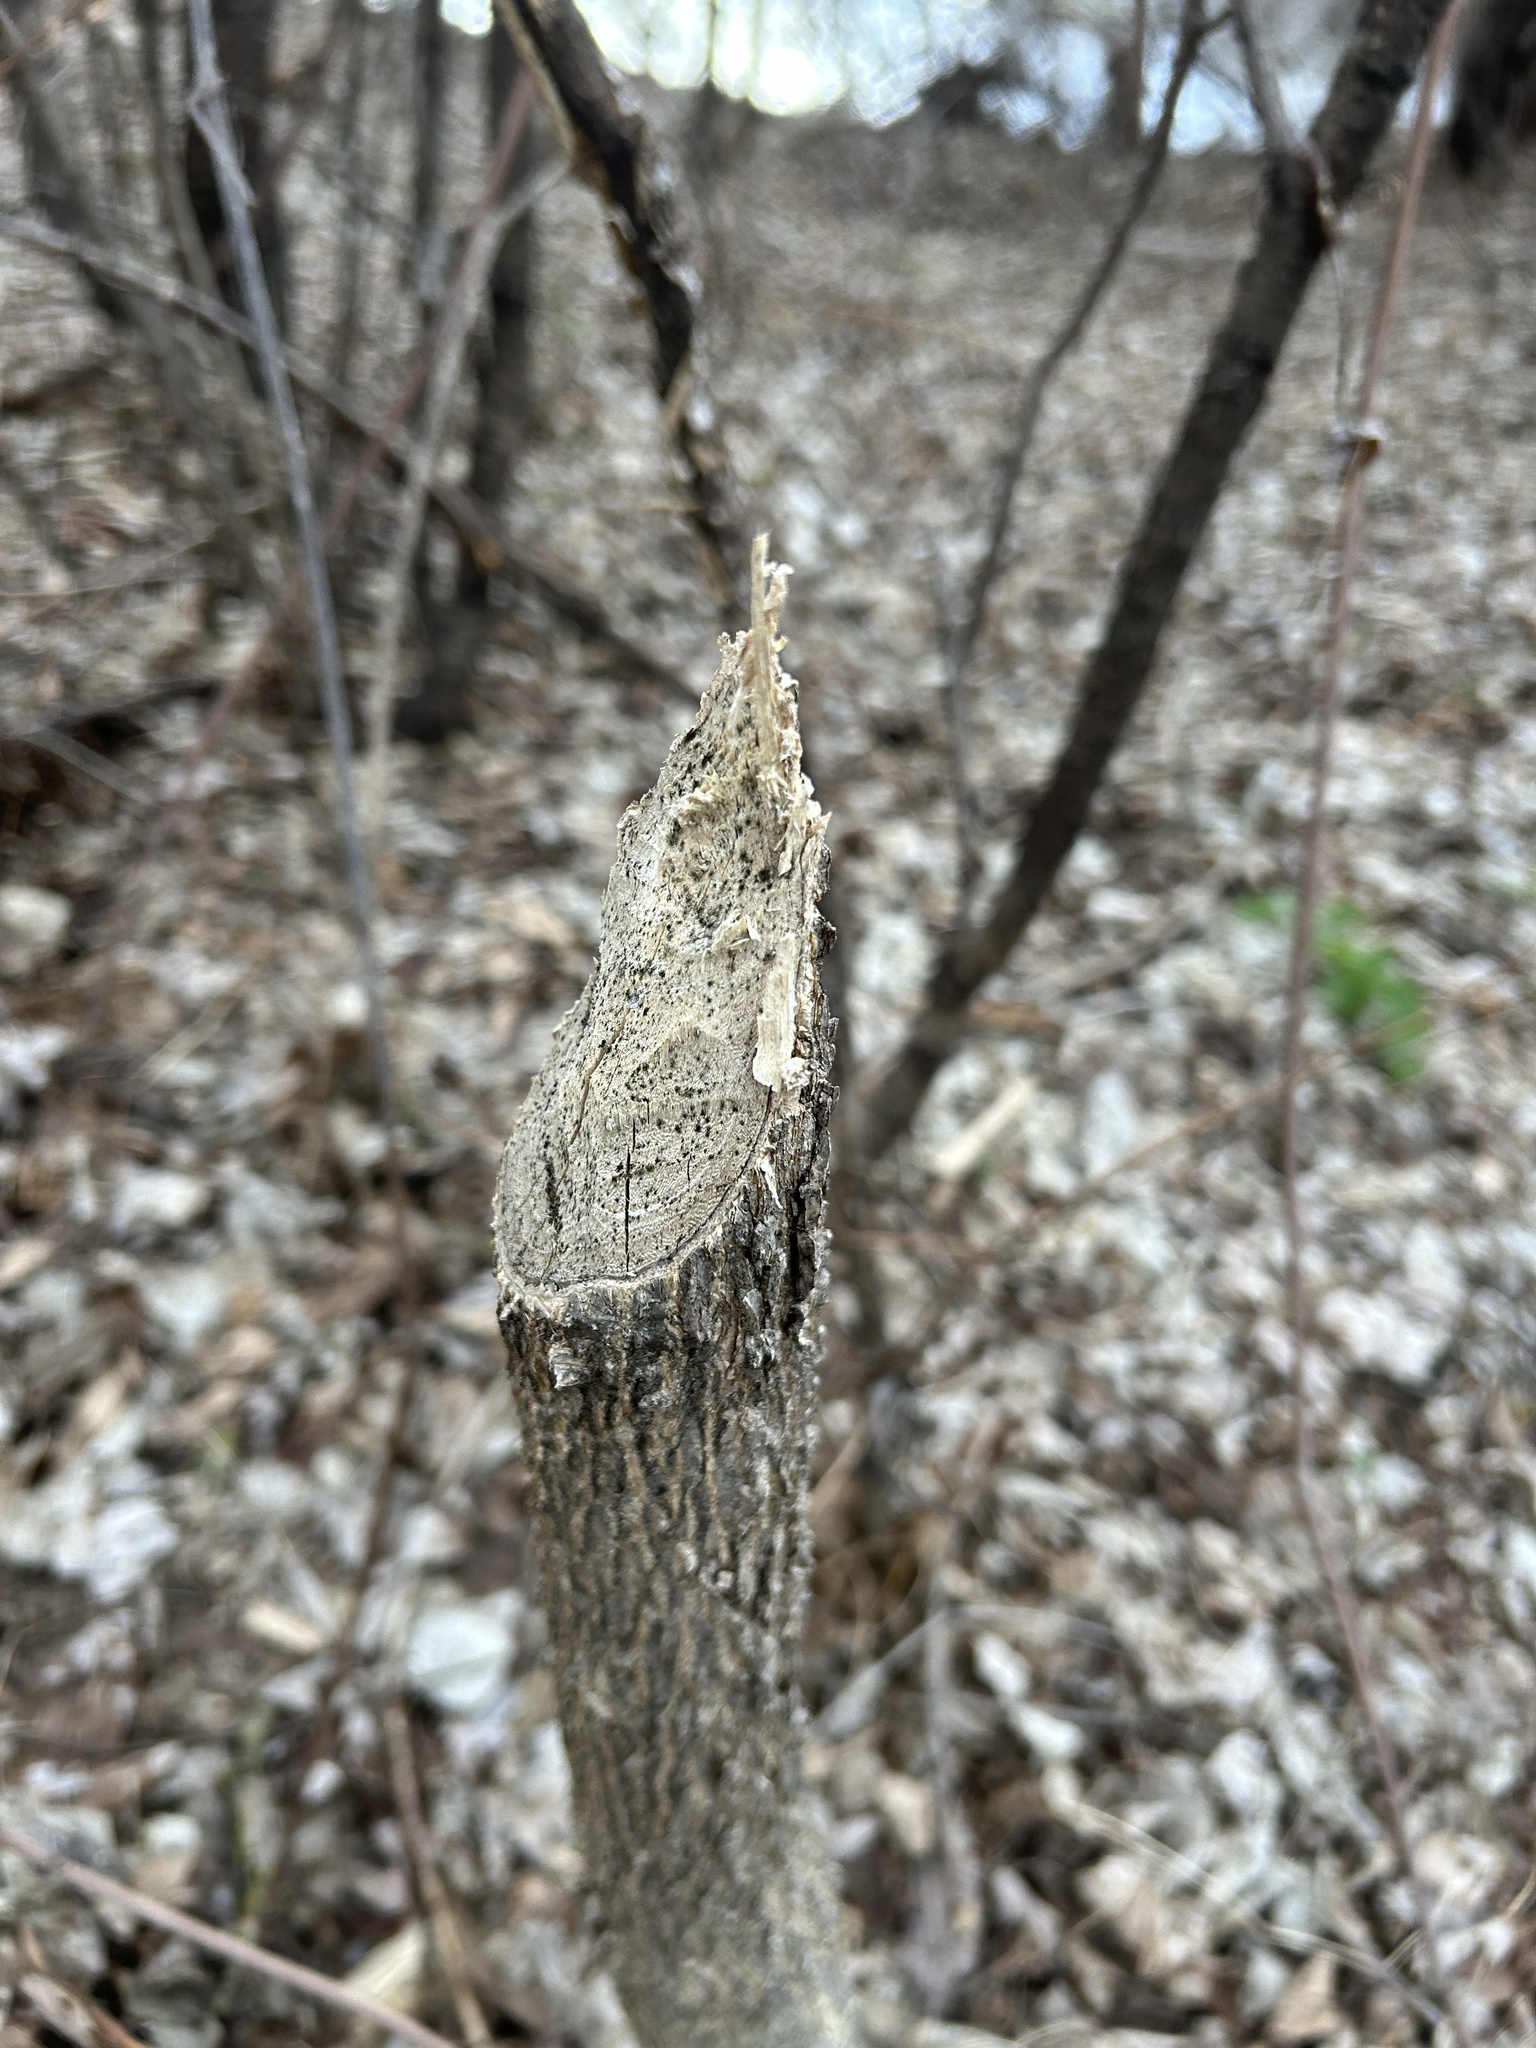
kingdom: Animalia
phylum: Chordata
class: Mammalia
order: Rodentia
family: Castoridae
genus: Castor
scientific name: Castor canadensis
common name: American beaver
